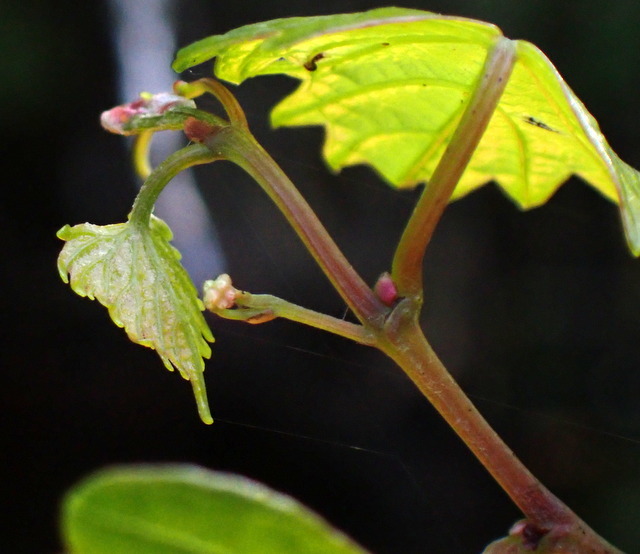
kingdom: Plantae
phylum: Tracheophyta
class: Magnoliopsida
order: Vitales
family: Vitaceae
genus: Vitis
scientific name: Vitis rotundifolia
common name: Muscadine grape
